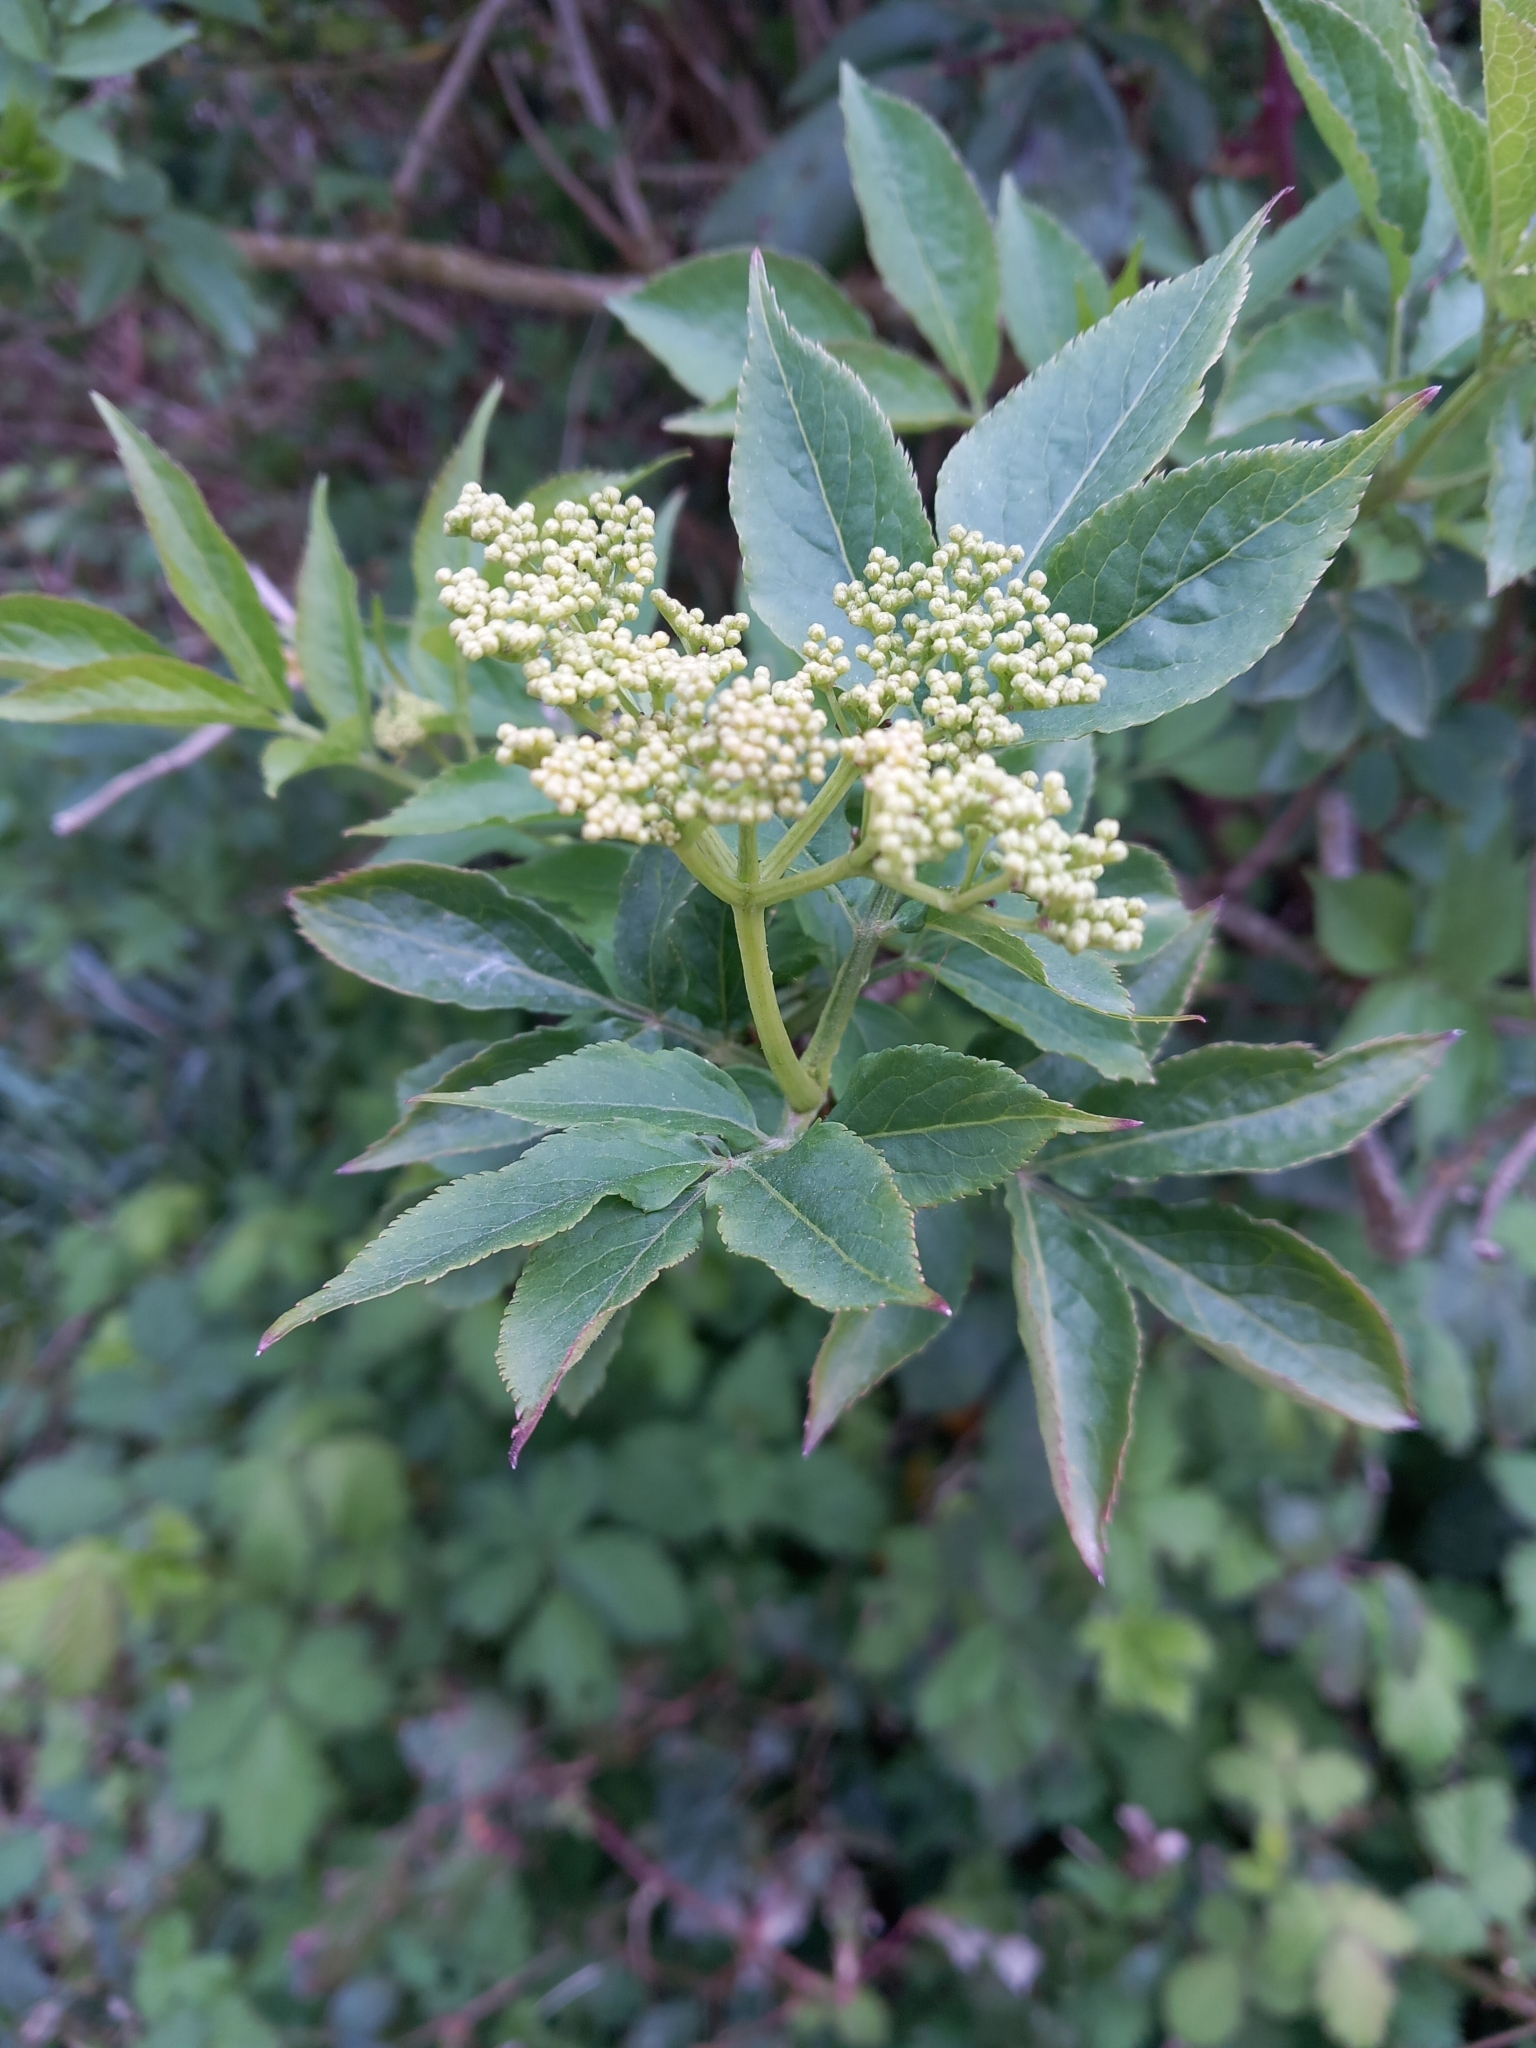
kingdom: Plantae
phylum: Tracheophyta
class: Magnoliopsida
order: Dipsacales
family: Viburnaceae
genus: Sambucus
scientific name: Sambucus nigra
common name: Elder
